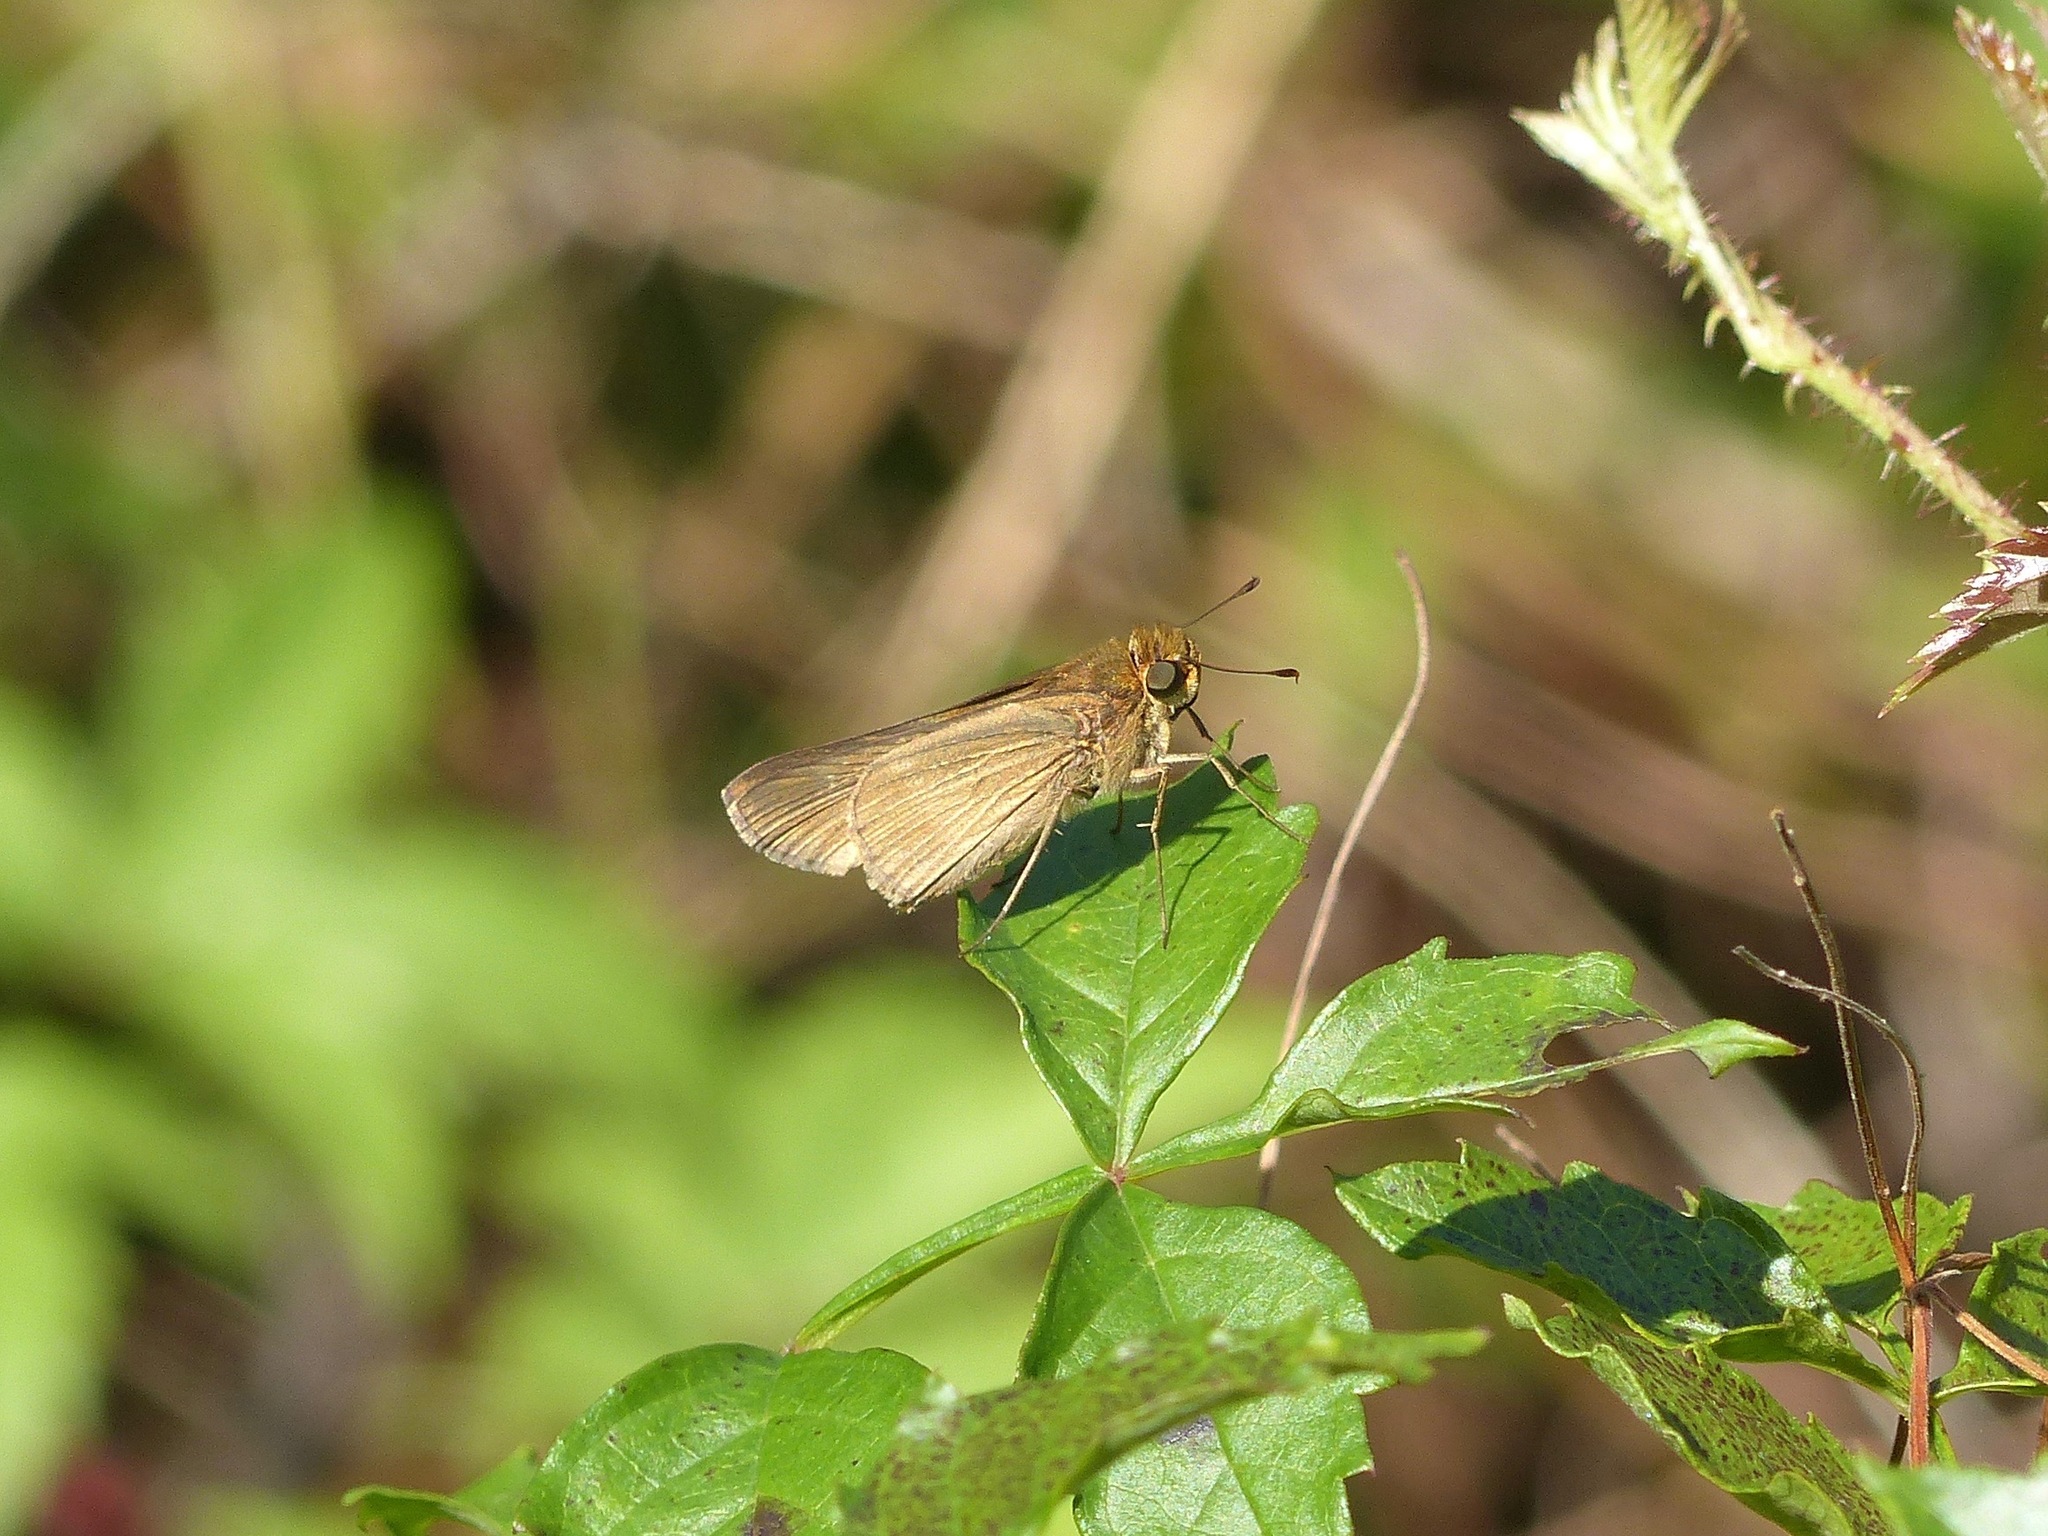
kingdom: Animalia
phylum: Arthropoda
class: Insecta
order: Lepidoptera
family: Hesperiidae
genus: Panoquina
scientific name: Panoquina ocola
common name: Ocola skipper
